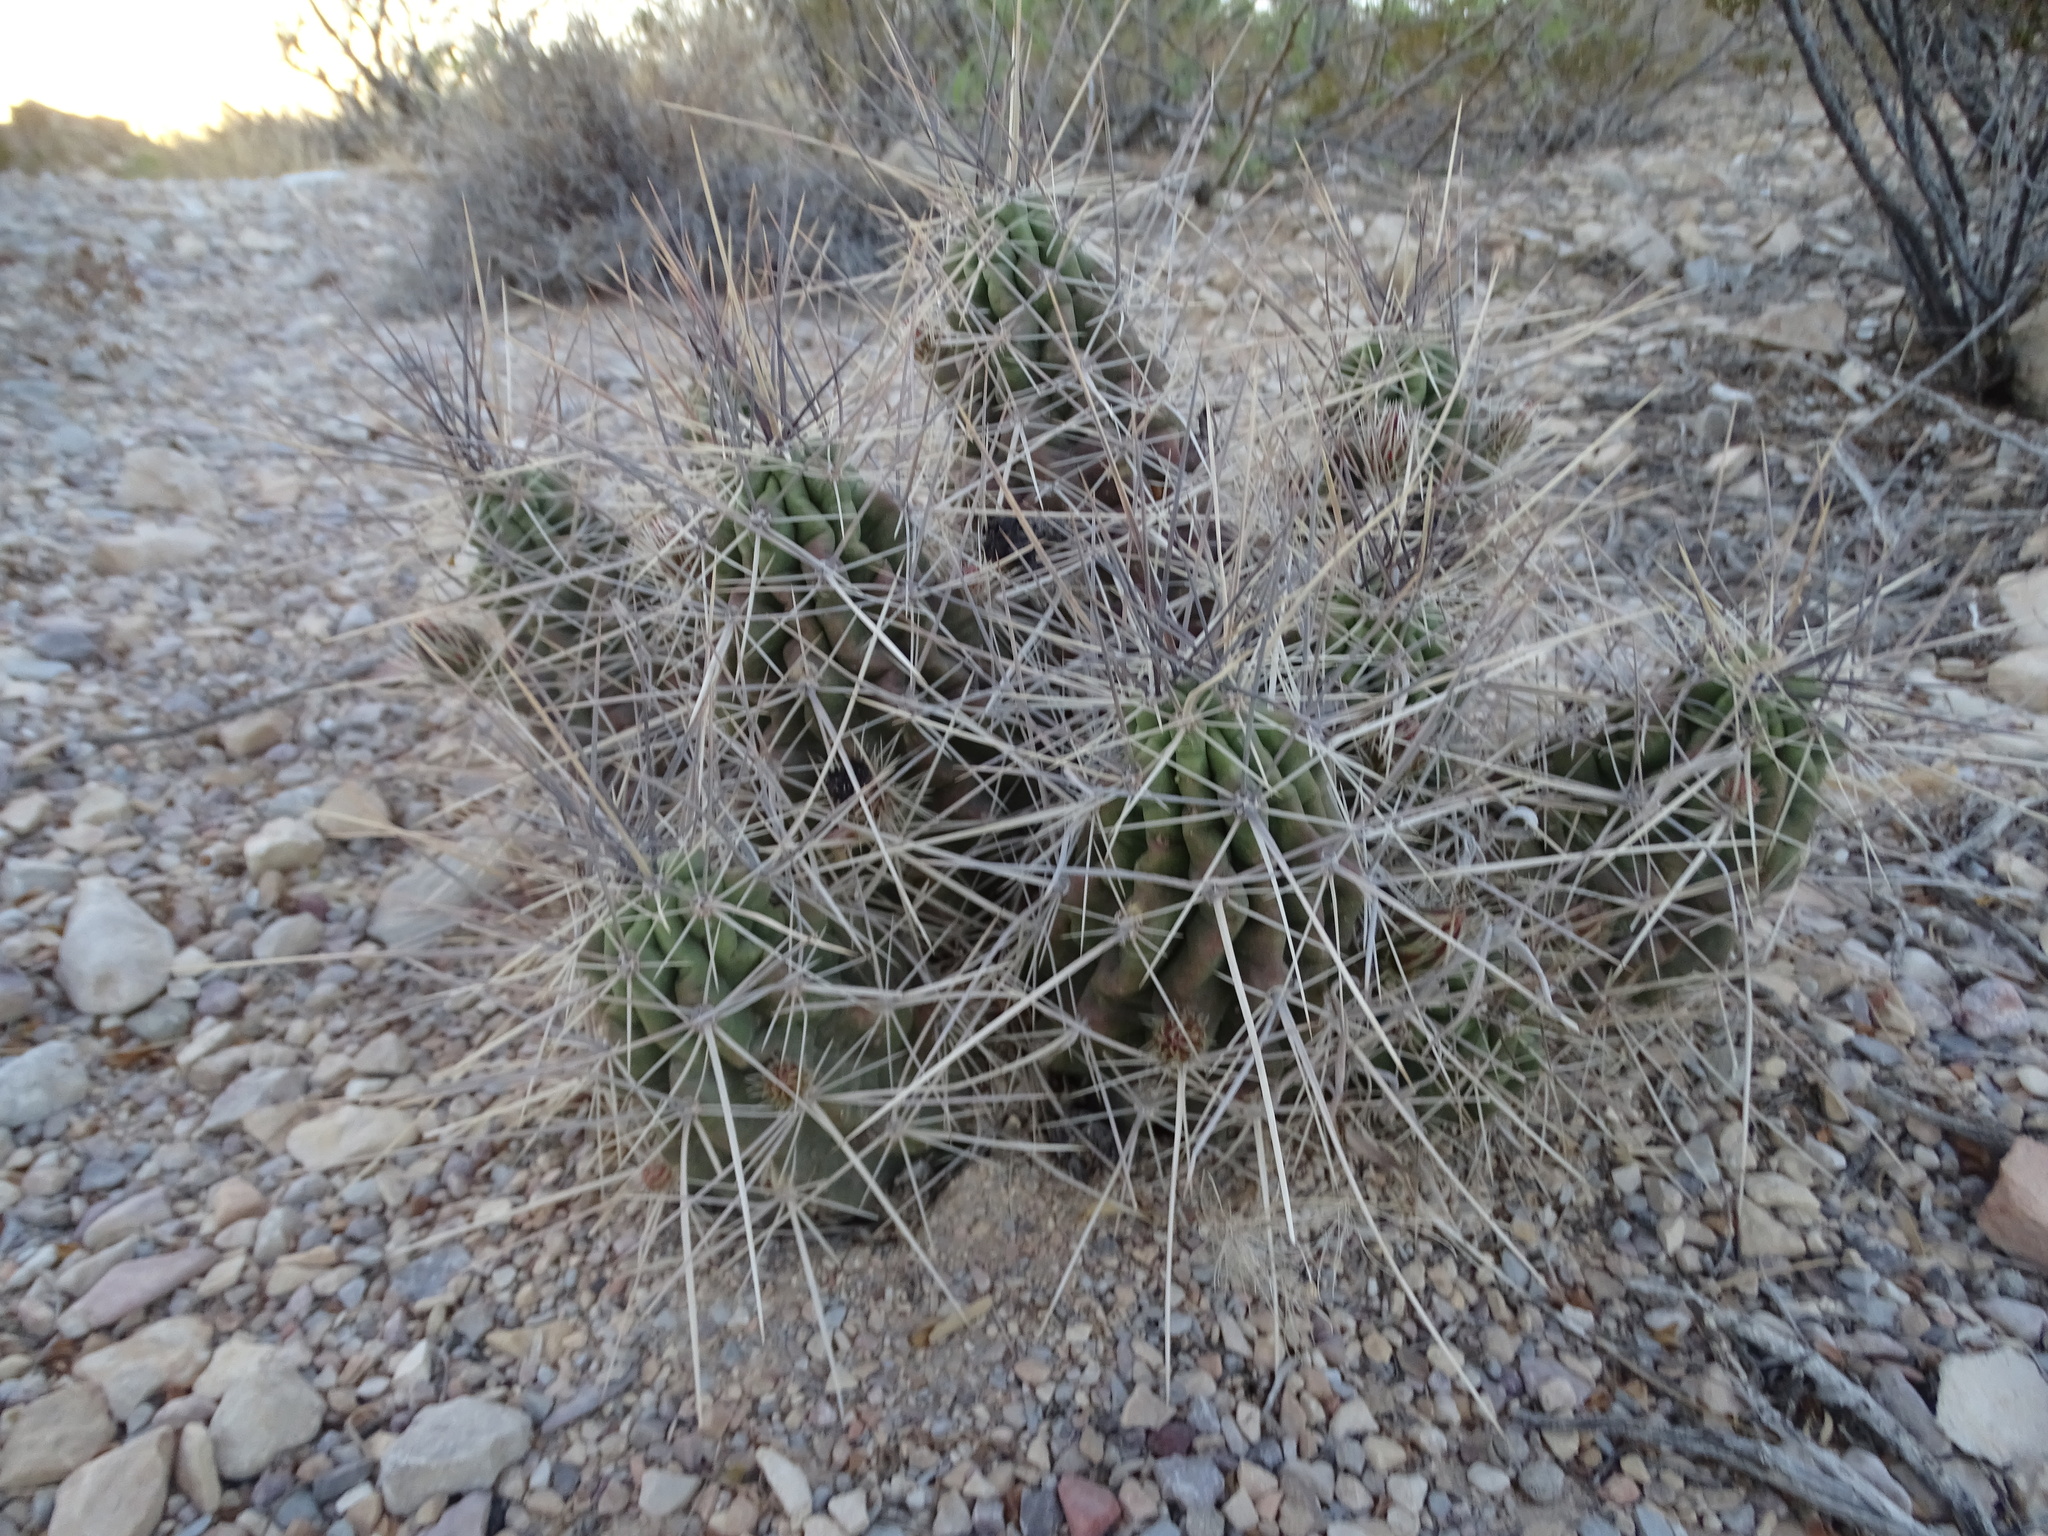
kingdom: Plantae
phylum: Tracheophyta
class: Magnoliopsida
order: Caryophyllales
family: Cactaceae
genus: Echinocereus
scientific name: Echinocereus enneacanthus
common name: Pitaya
